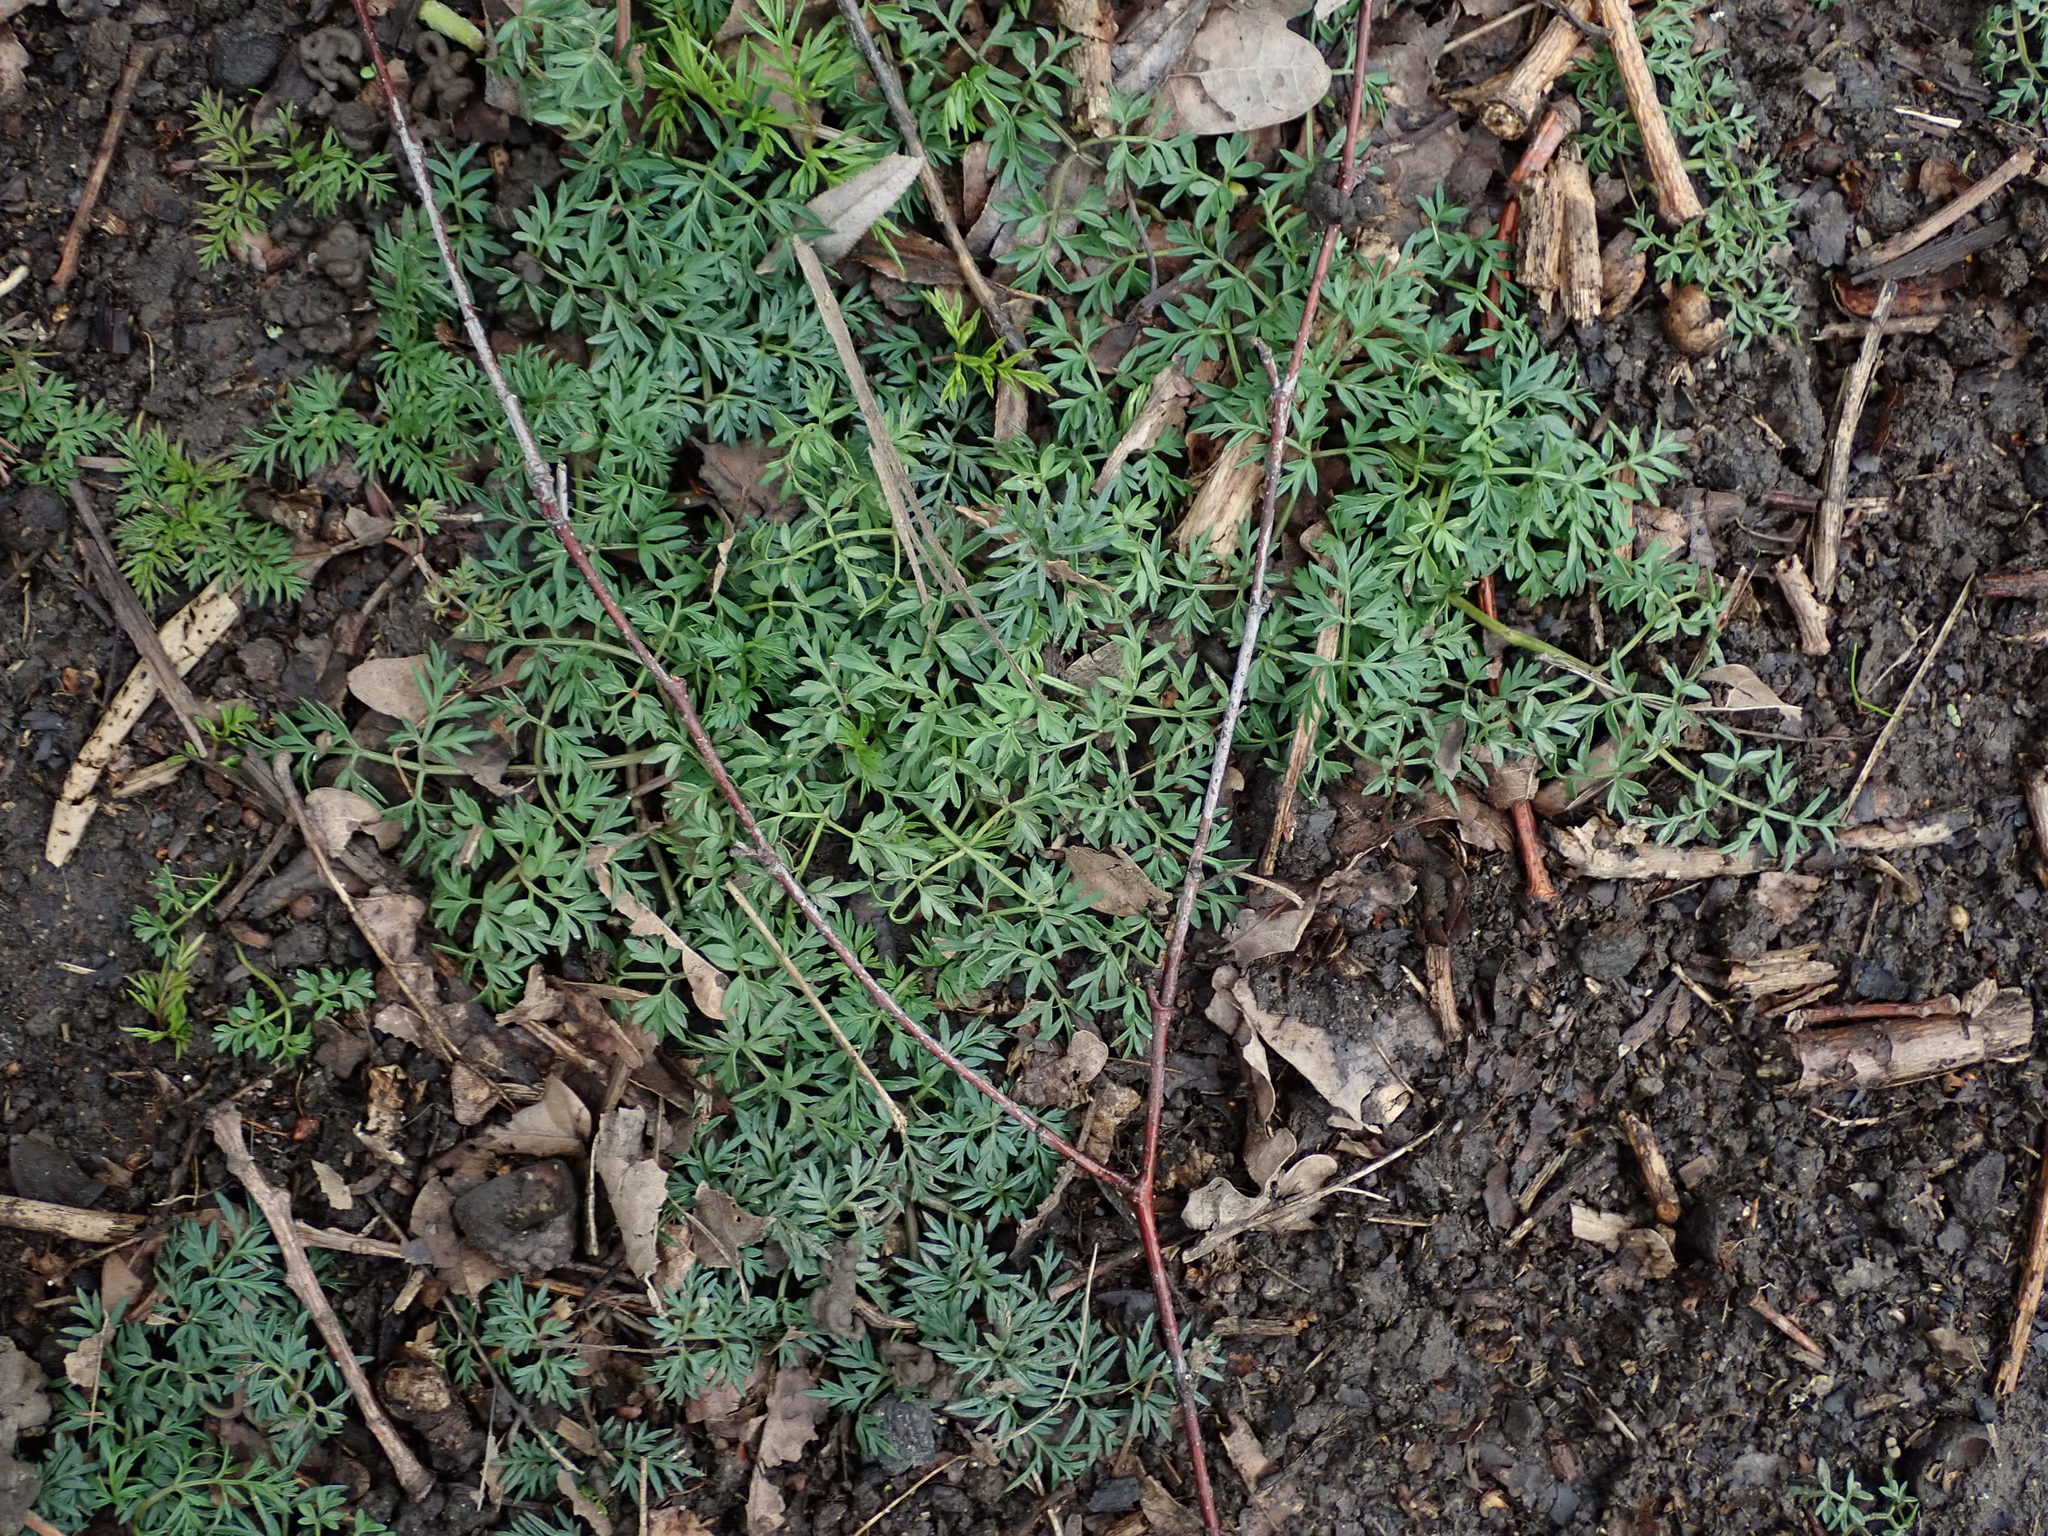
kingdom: Plantae
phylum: Tracheophyta
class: Magnoliopsida
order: Apiales
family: Apiaceae
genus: Conopodium
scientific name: Conopodium majus
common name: Pignut
